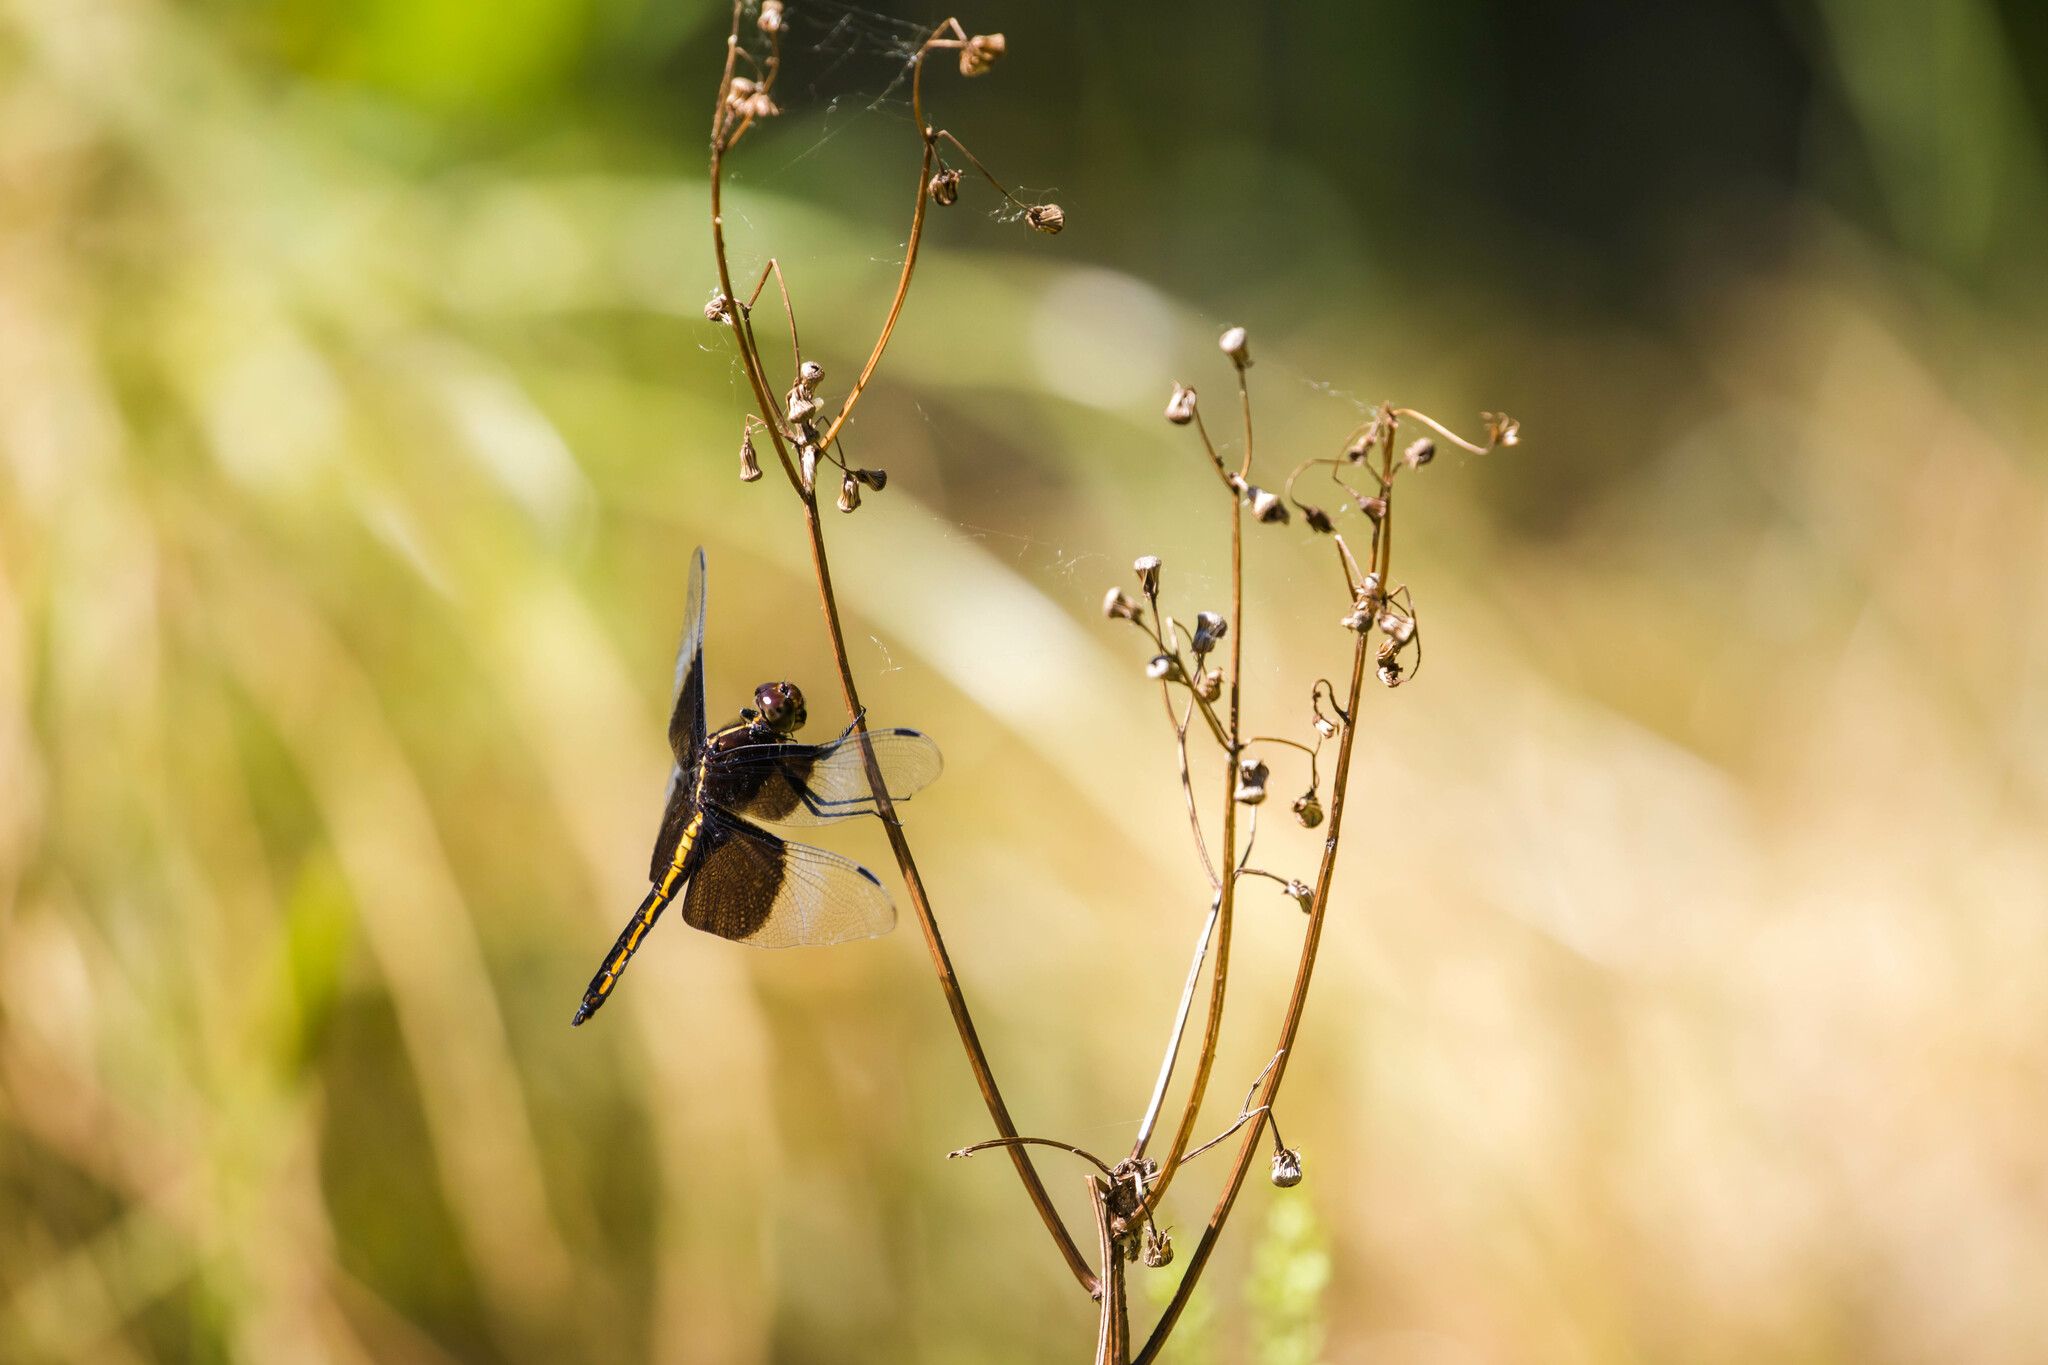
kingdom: Animalia
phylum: Arthropoda
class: Insecta
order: Odonata
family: Libellulidae
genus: Libellula
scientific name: Libellula luctuosa
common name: Widow skimmer
